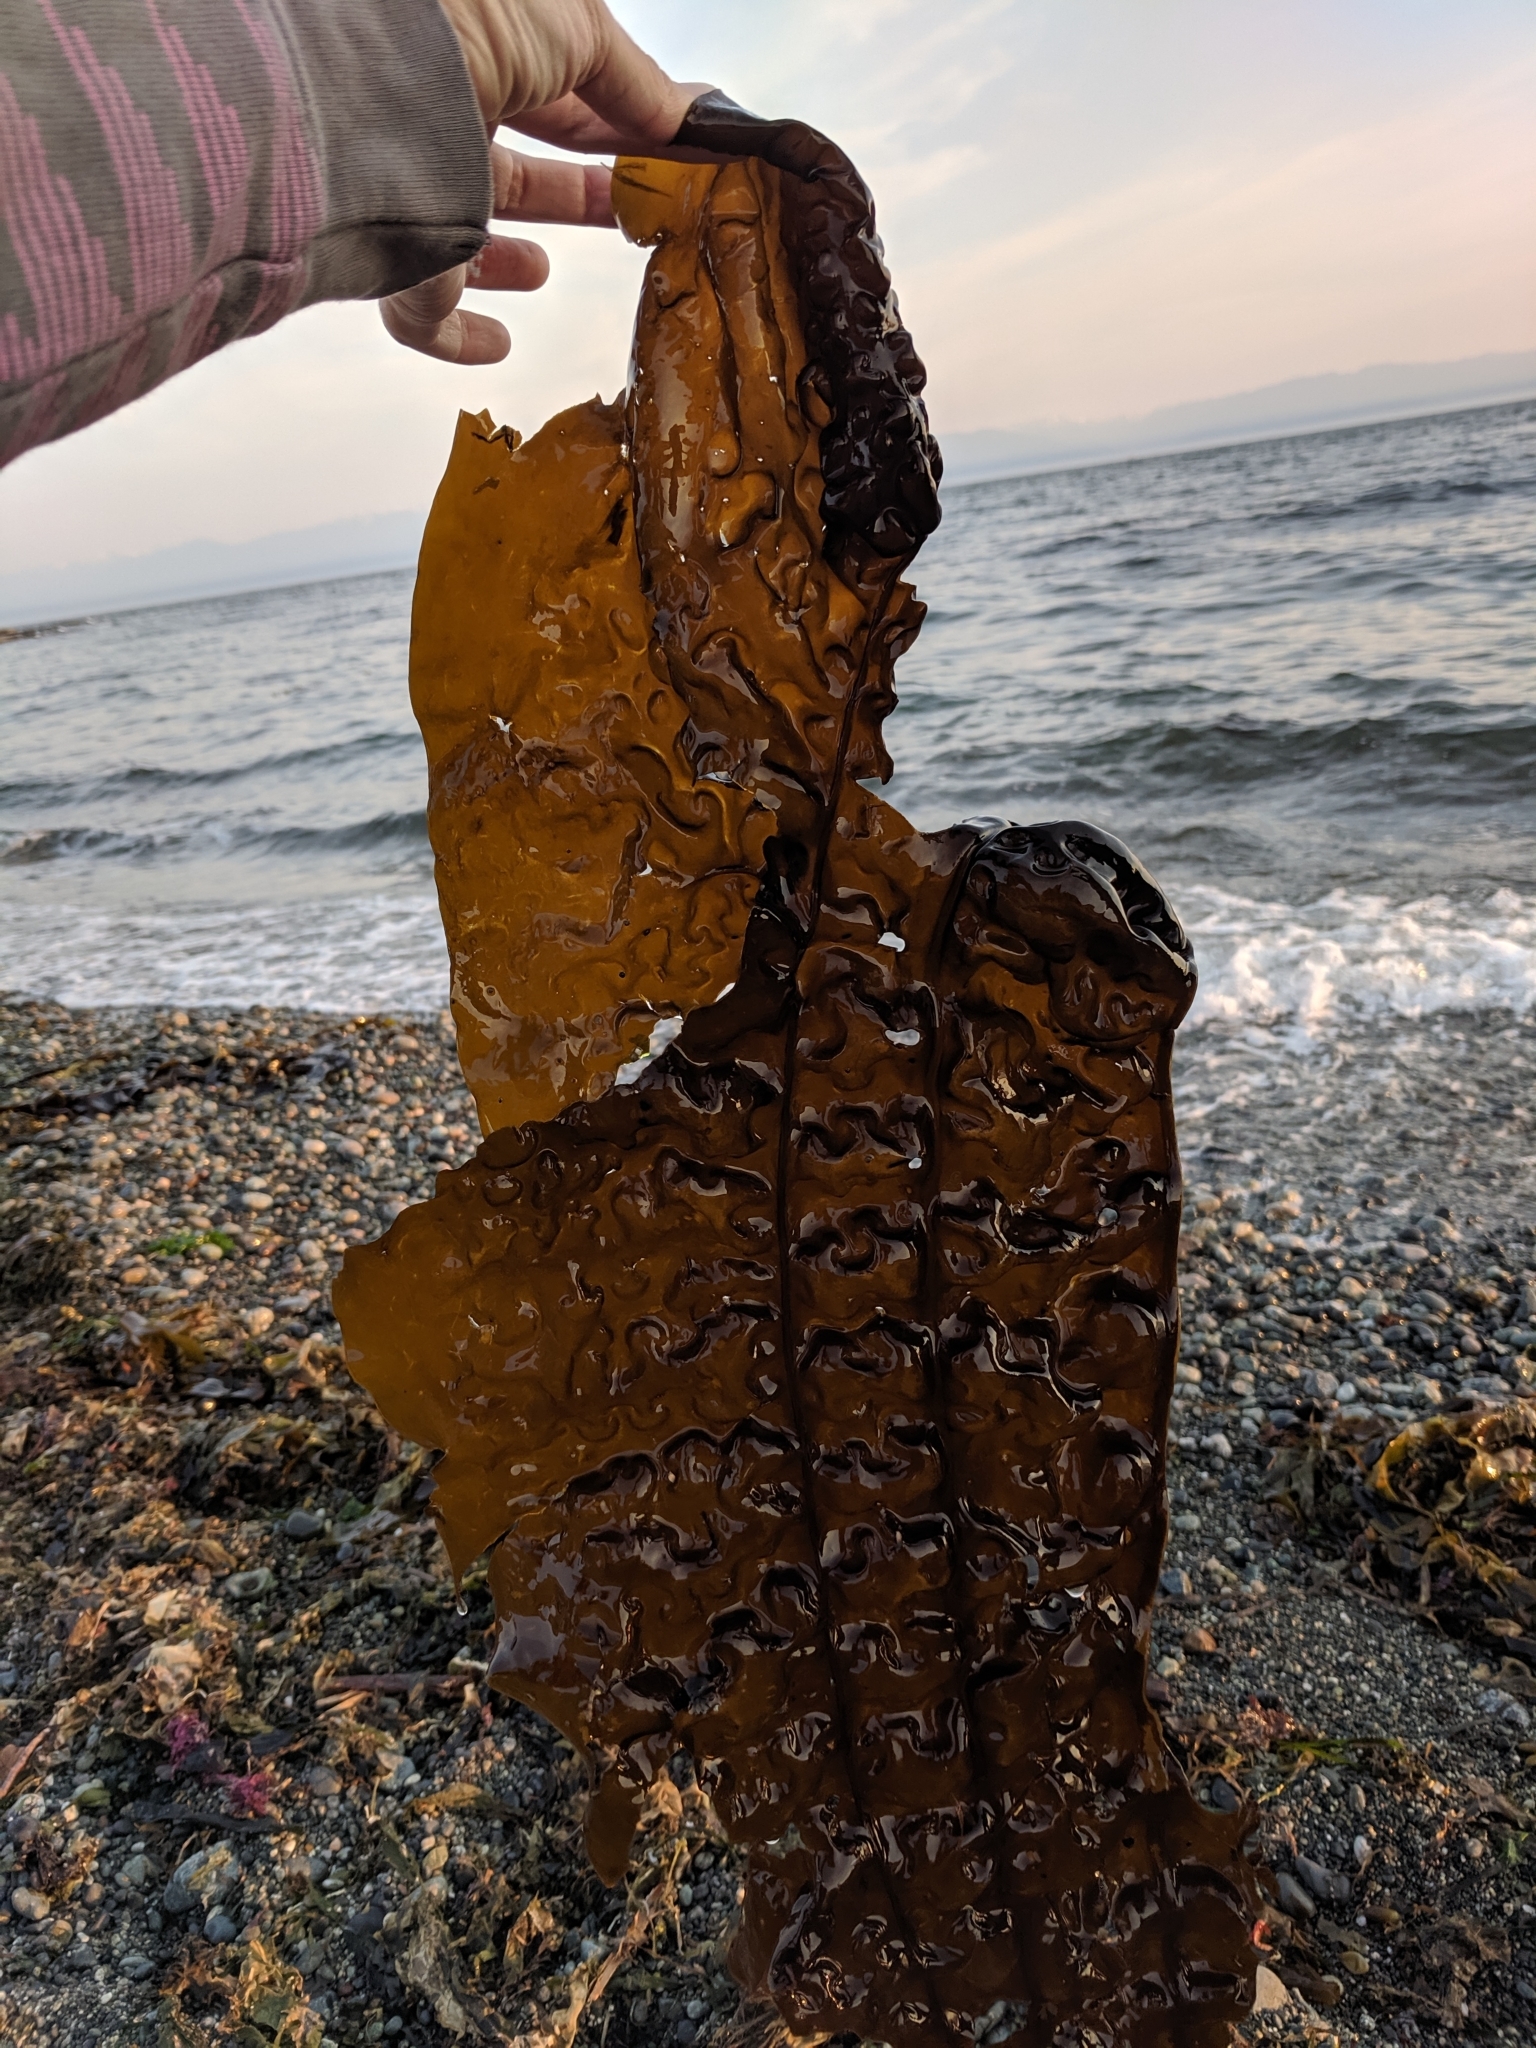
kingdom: Chromista
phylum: Ochrophyta
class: Phaeophyceae
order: Laminariales
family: Costariaceae
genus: Costaria
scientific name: Costaria costata
